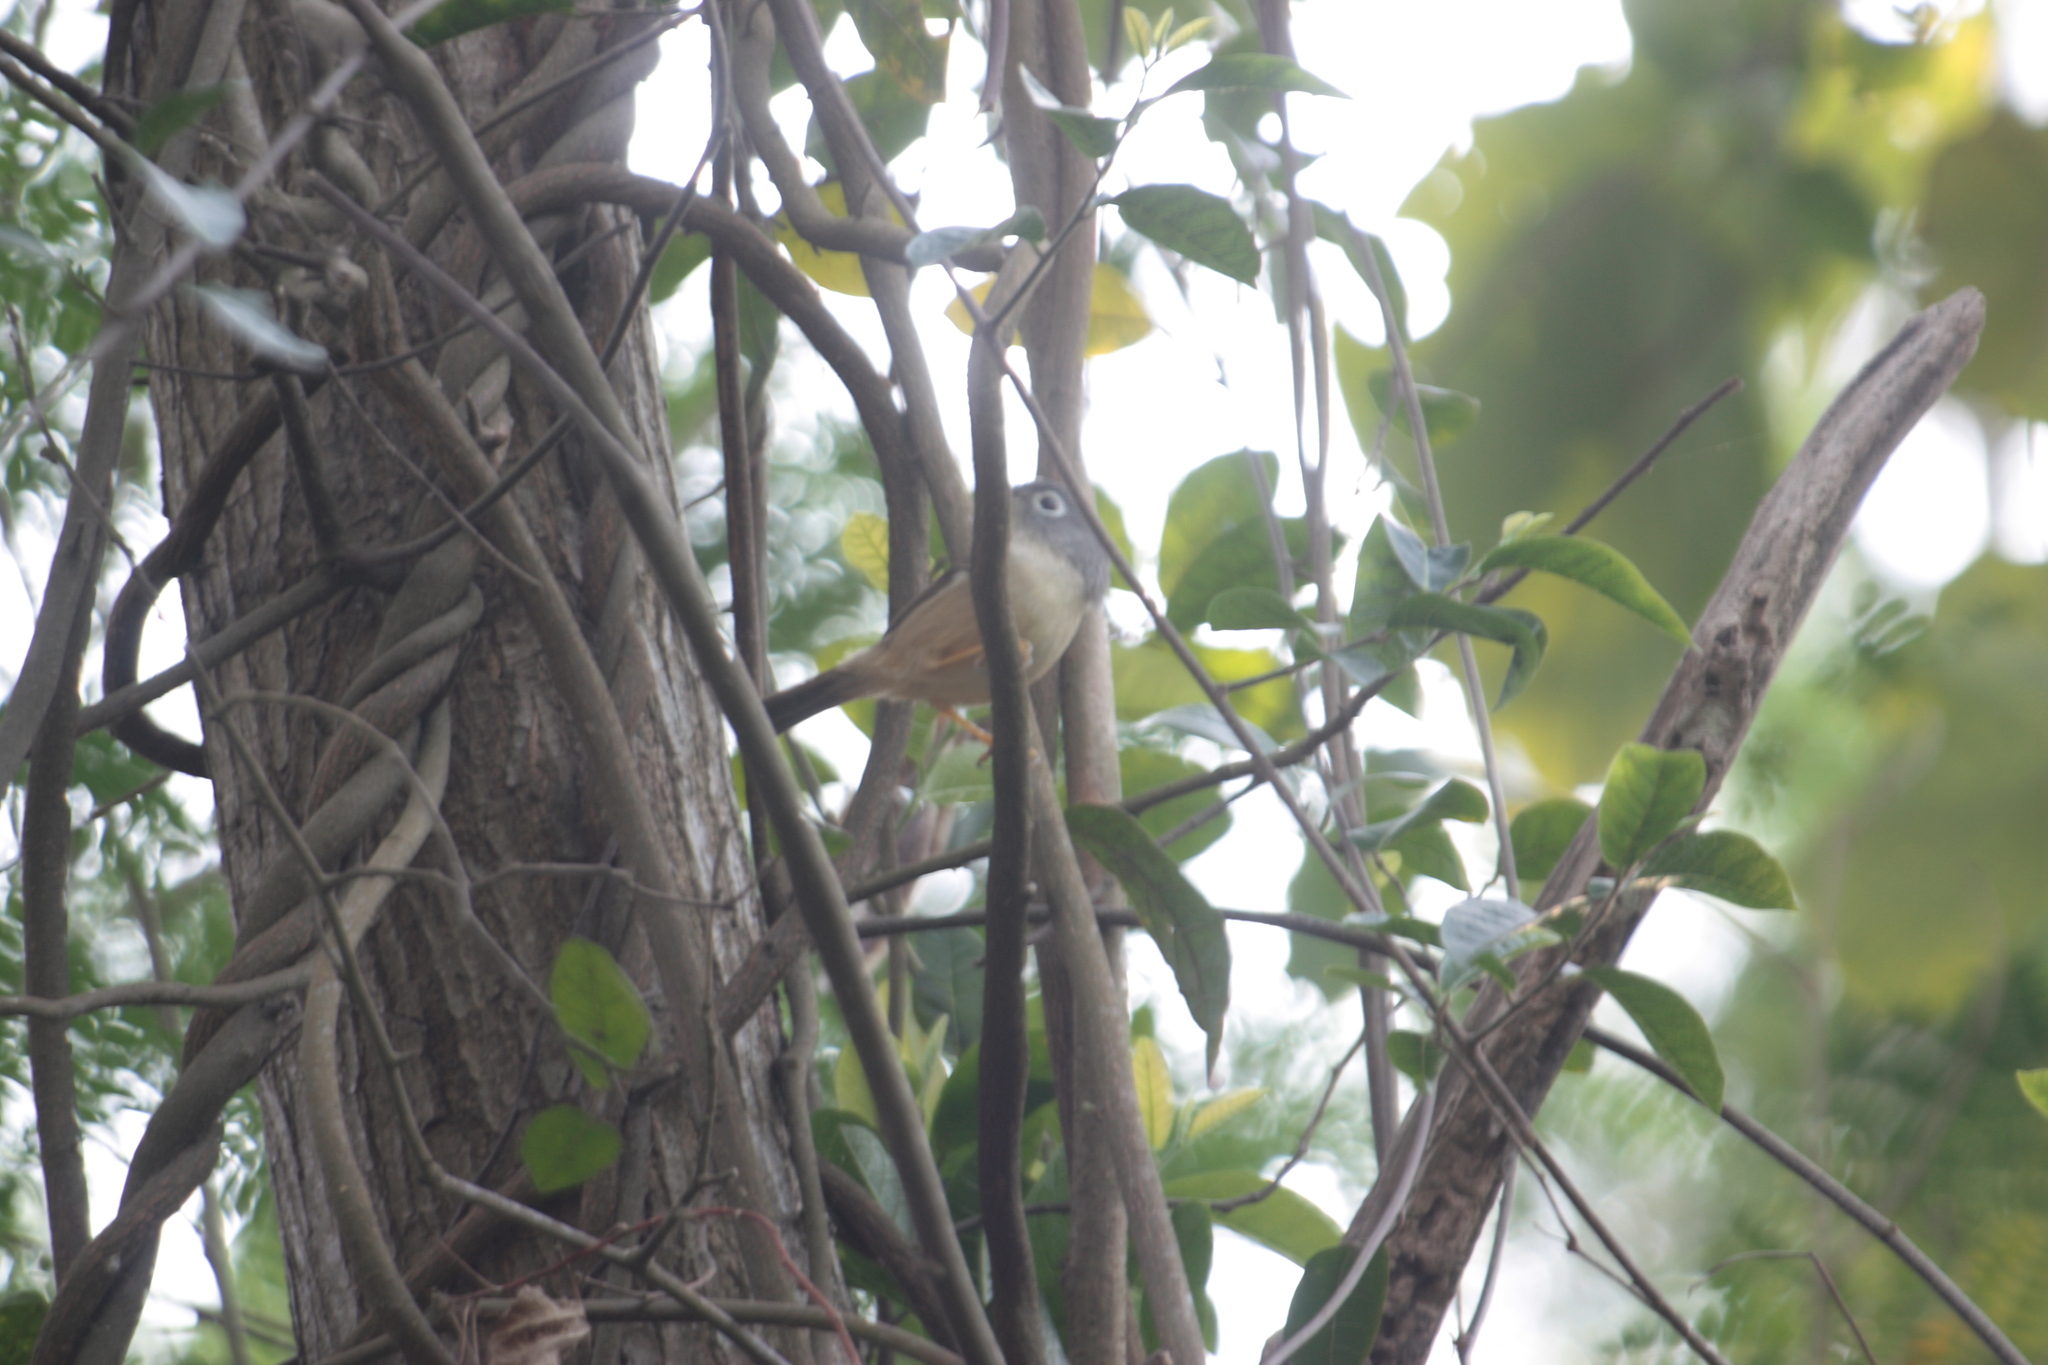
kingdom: Animalia
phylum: Chordata
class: Aves
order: Passeriformes
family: Pellorneidae
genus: Alcippe
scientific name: Alcippe morrisonia
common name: Grey-cheeked fulvetta
